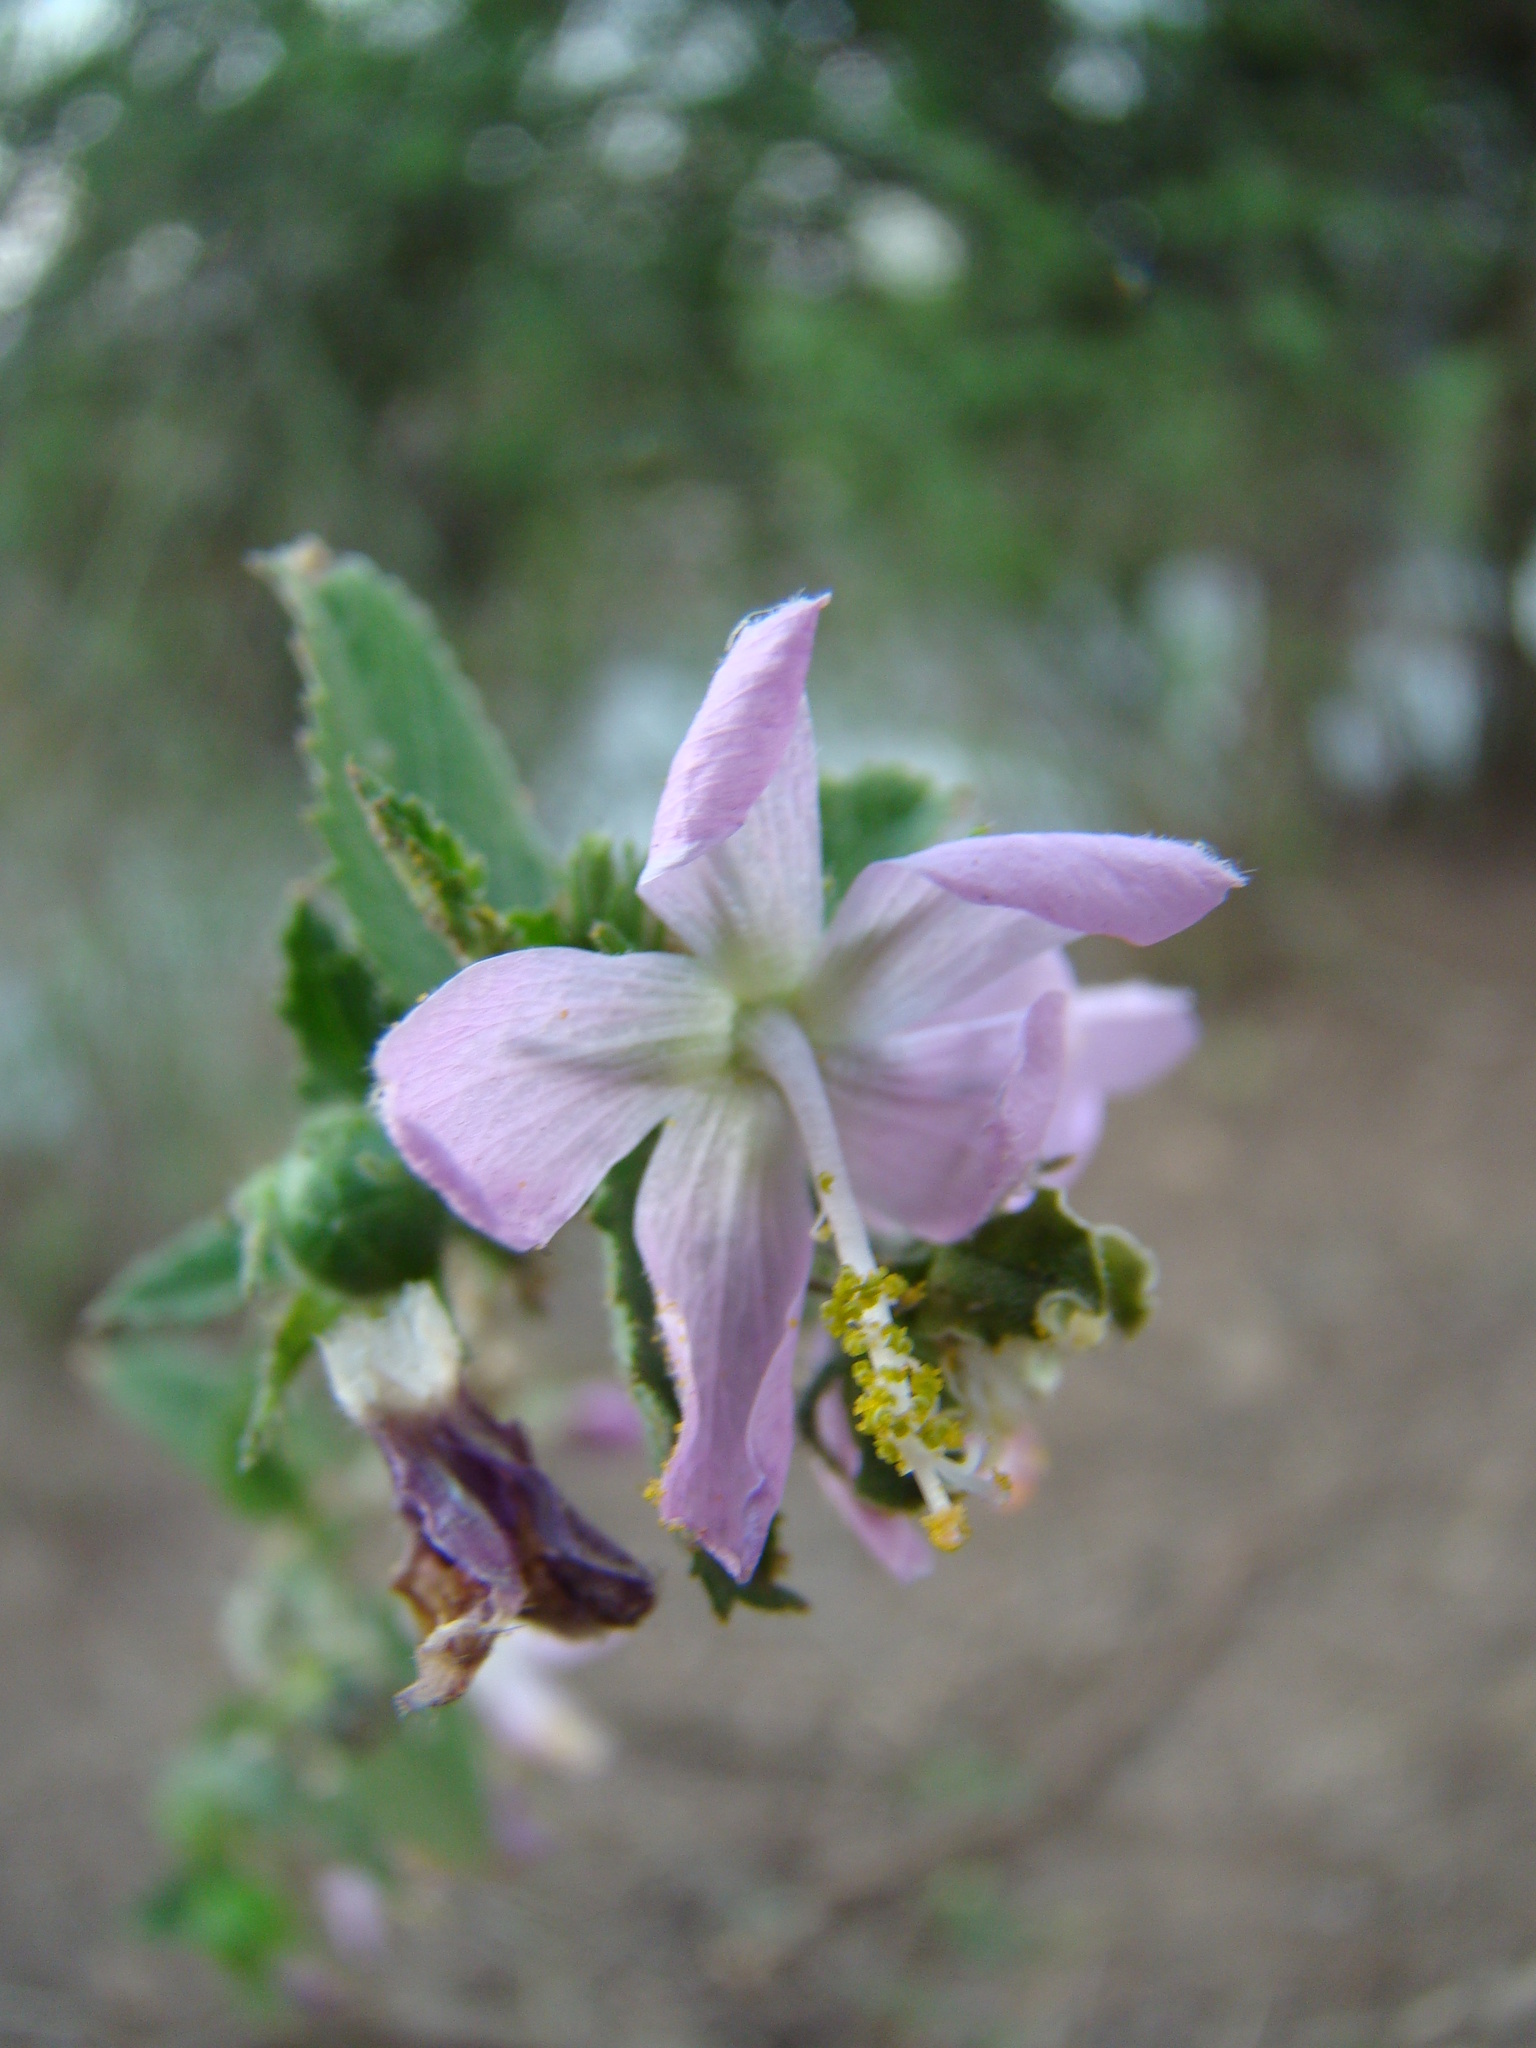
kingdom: Plantae
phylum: Tracheophyta
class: Magnoliopsida
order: Malvales
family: Malvaceae
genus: Hibiscus
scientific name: Hibiscus meyeri
